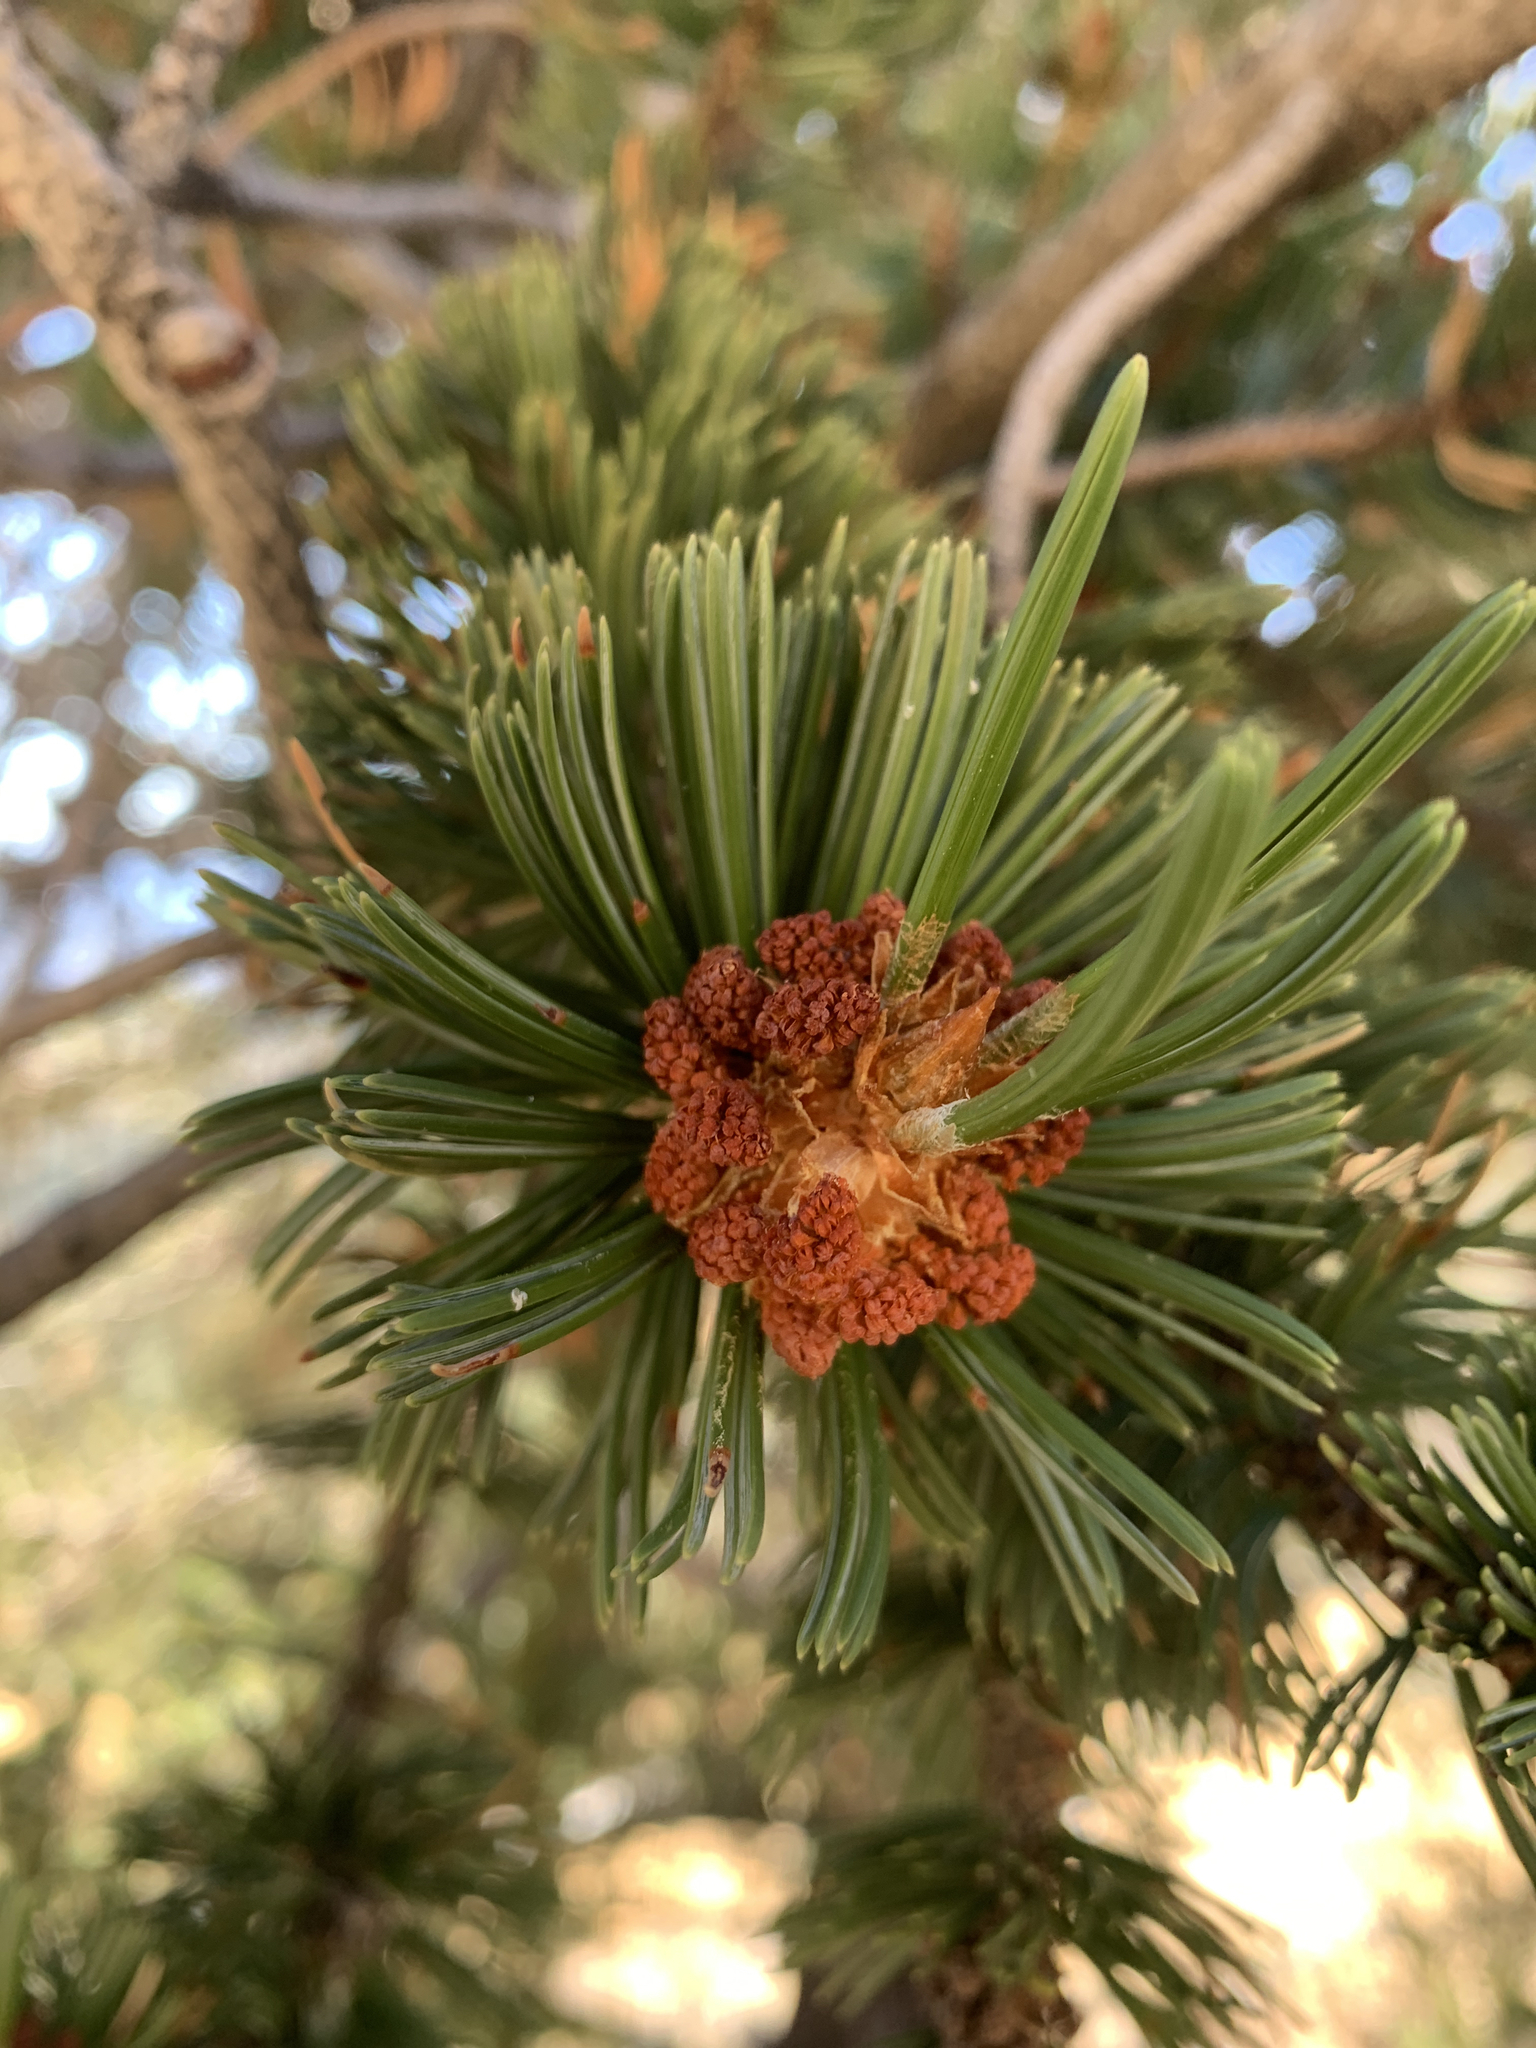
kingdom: Plantae
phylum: Tracheophyta
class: Pinopsida
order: Pinales
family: Pinaceae
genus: Pinus
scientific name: Pinus aristata
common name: Colorado bristlecone pine
